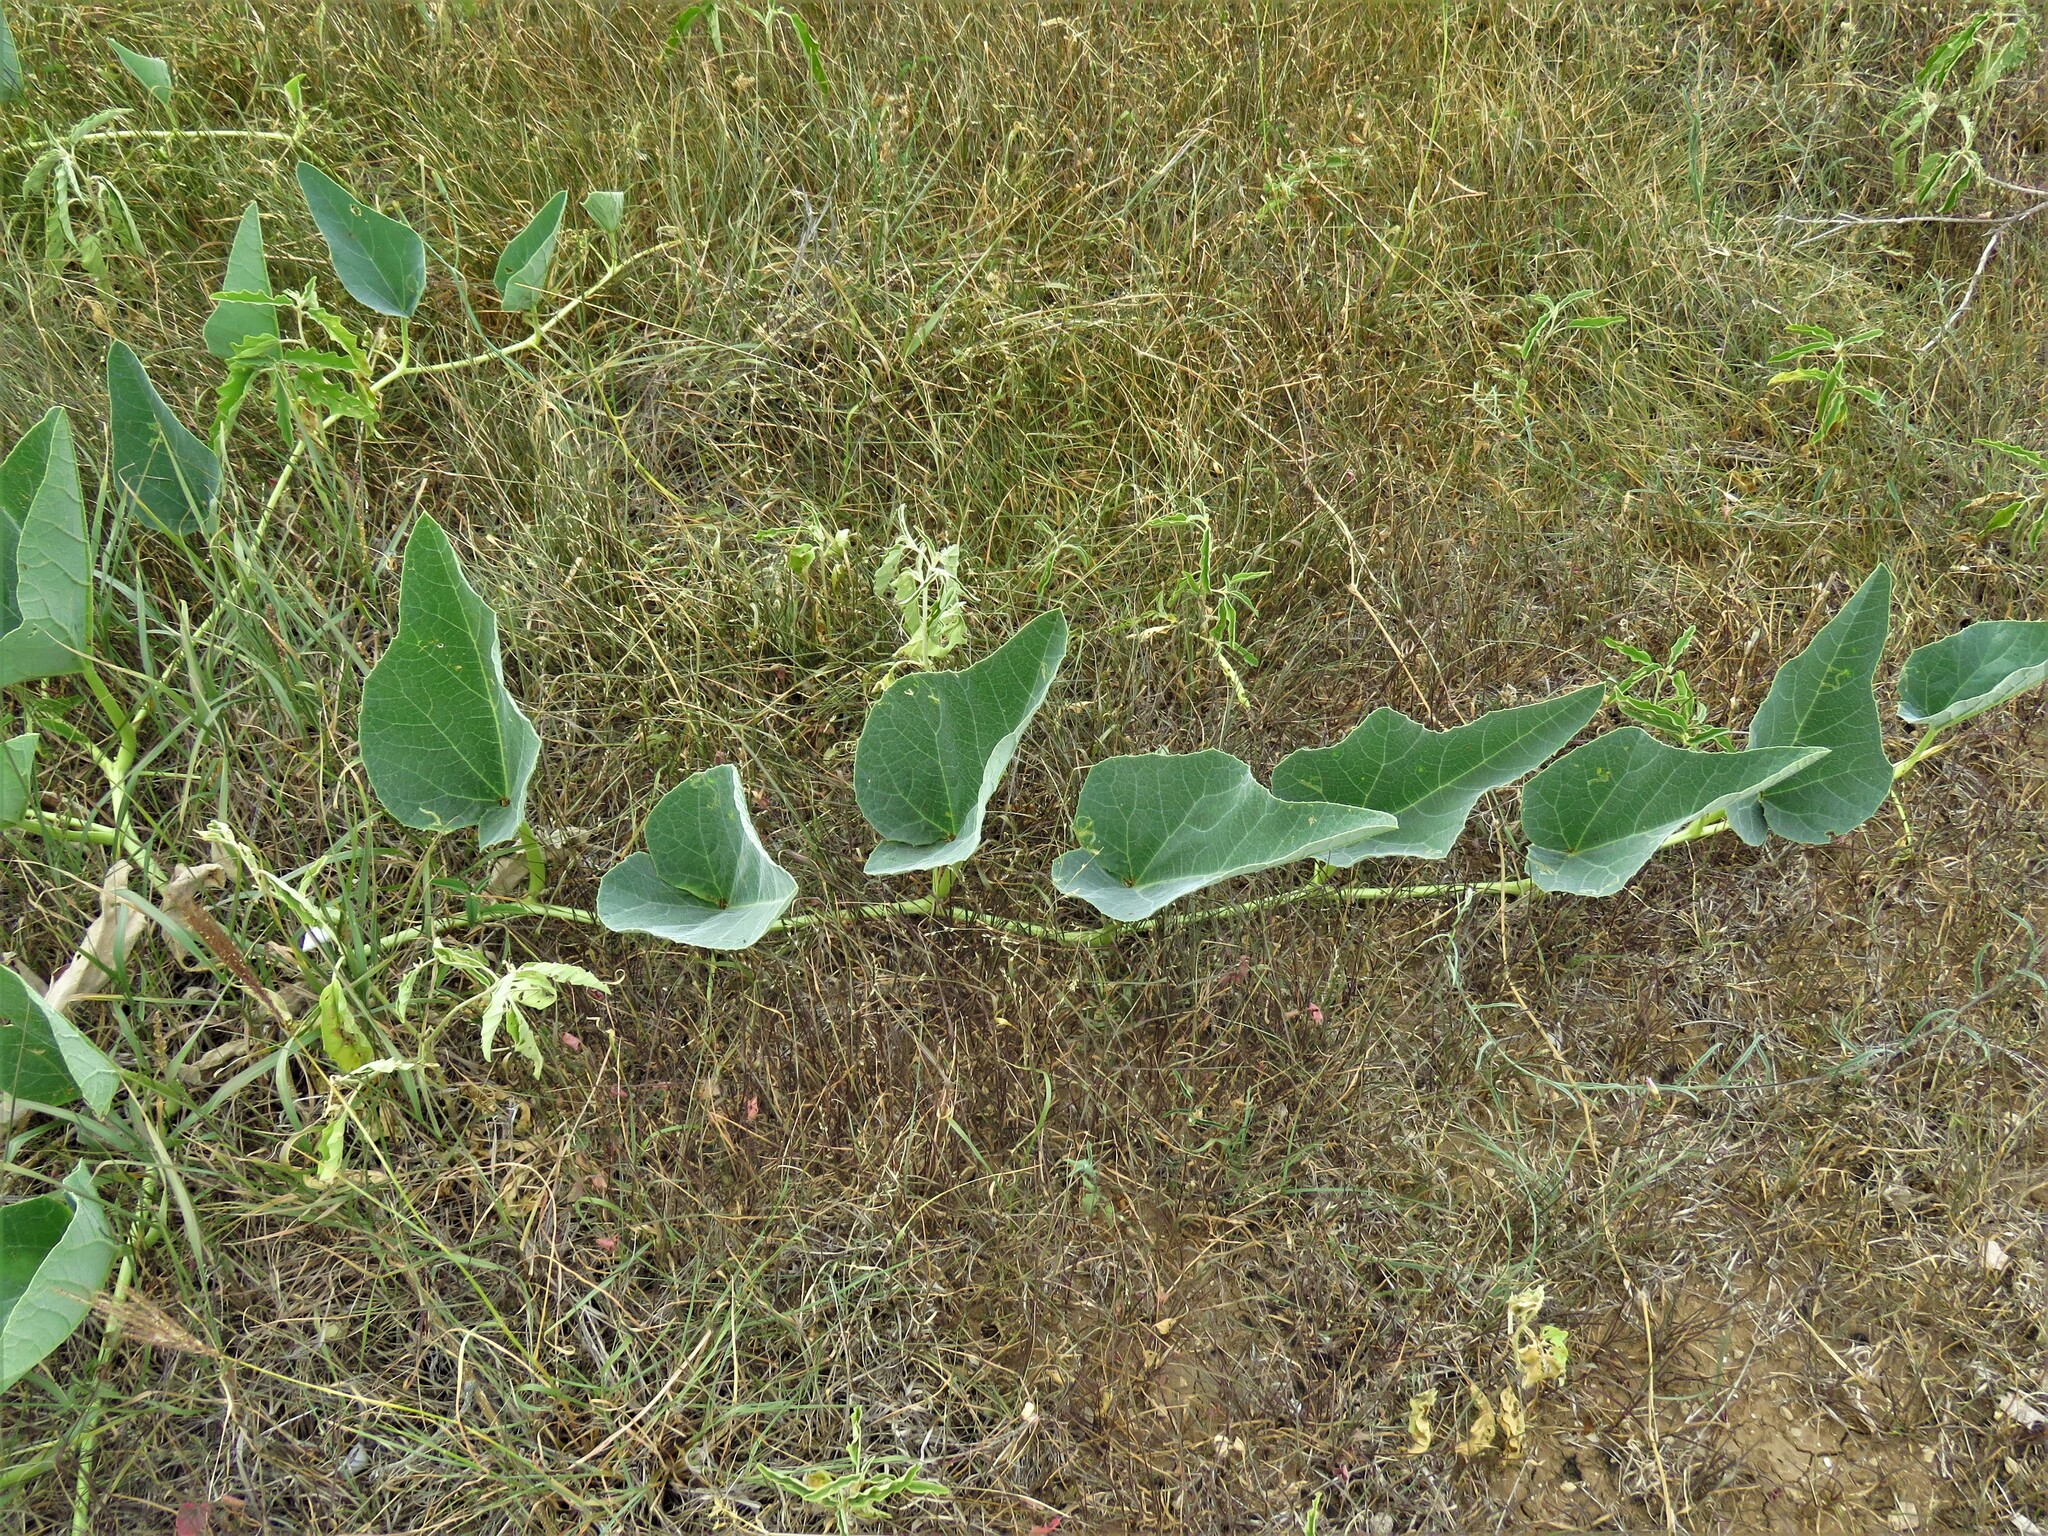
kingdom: Plantae
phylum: Tracheophyta
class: Magnoliopsida
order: Cucurbitales
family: Cucurbitaceae
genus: Cucurbita
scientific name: Cucurbita foetidissima
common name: Buffalo gourd
